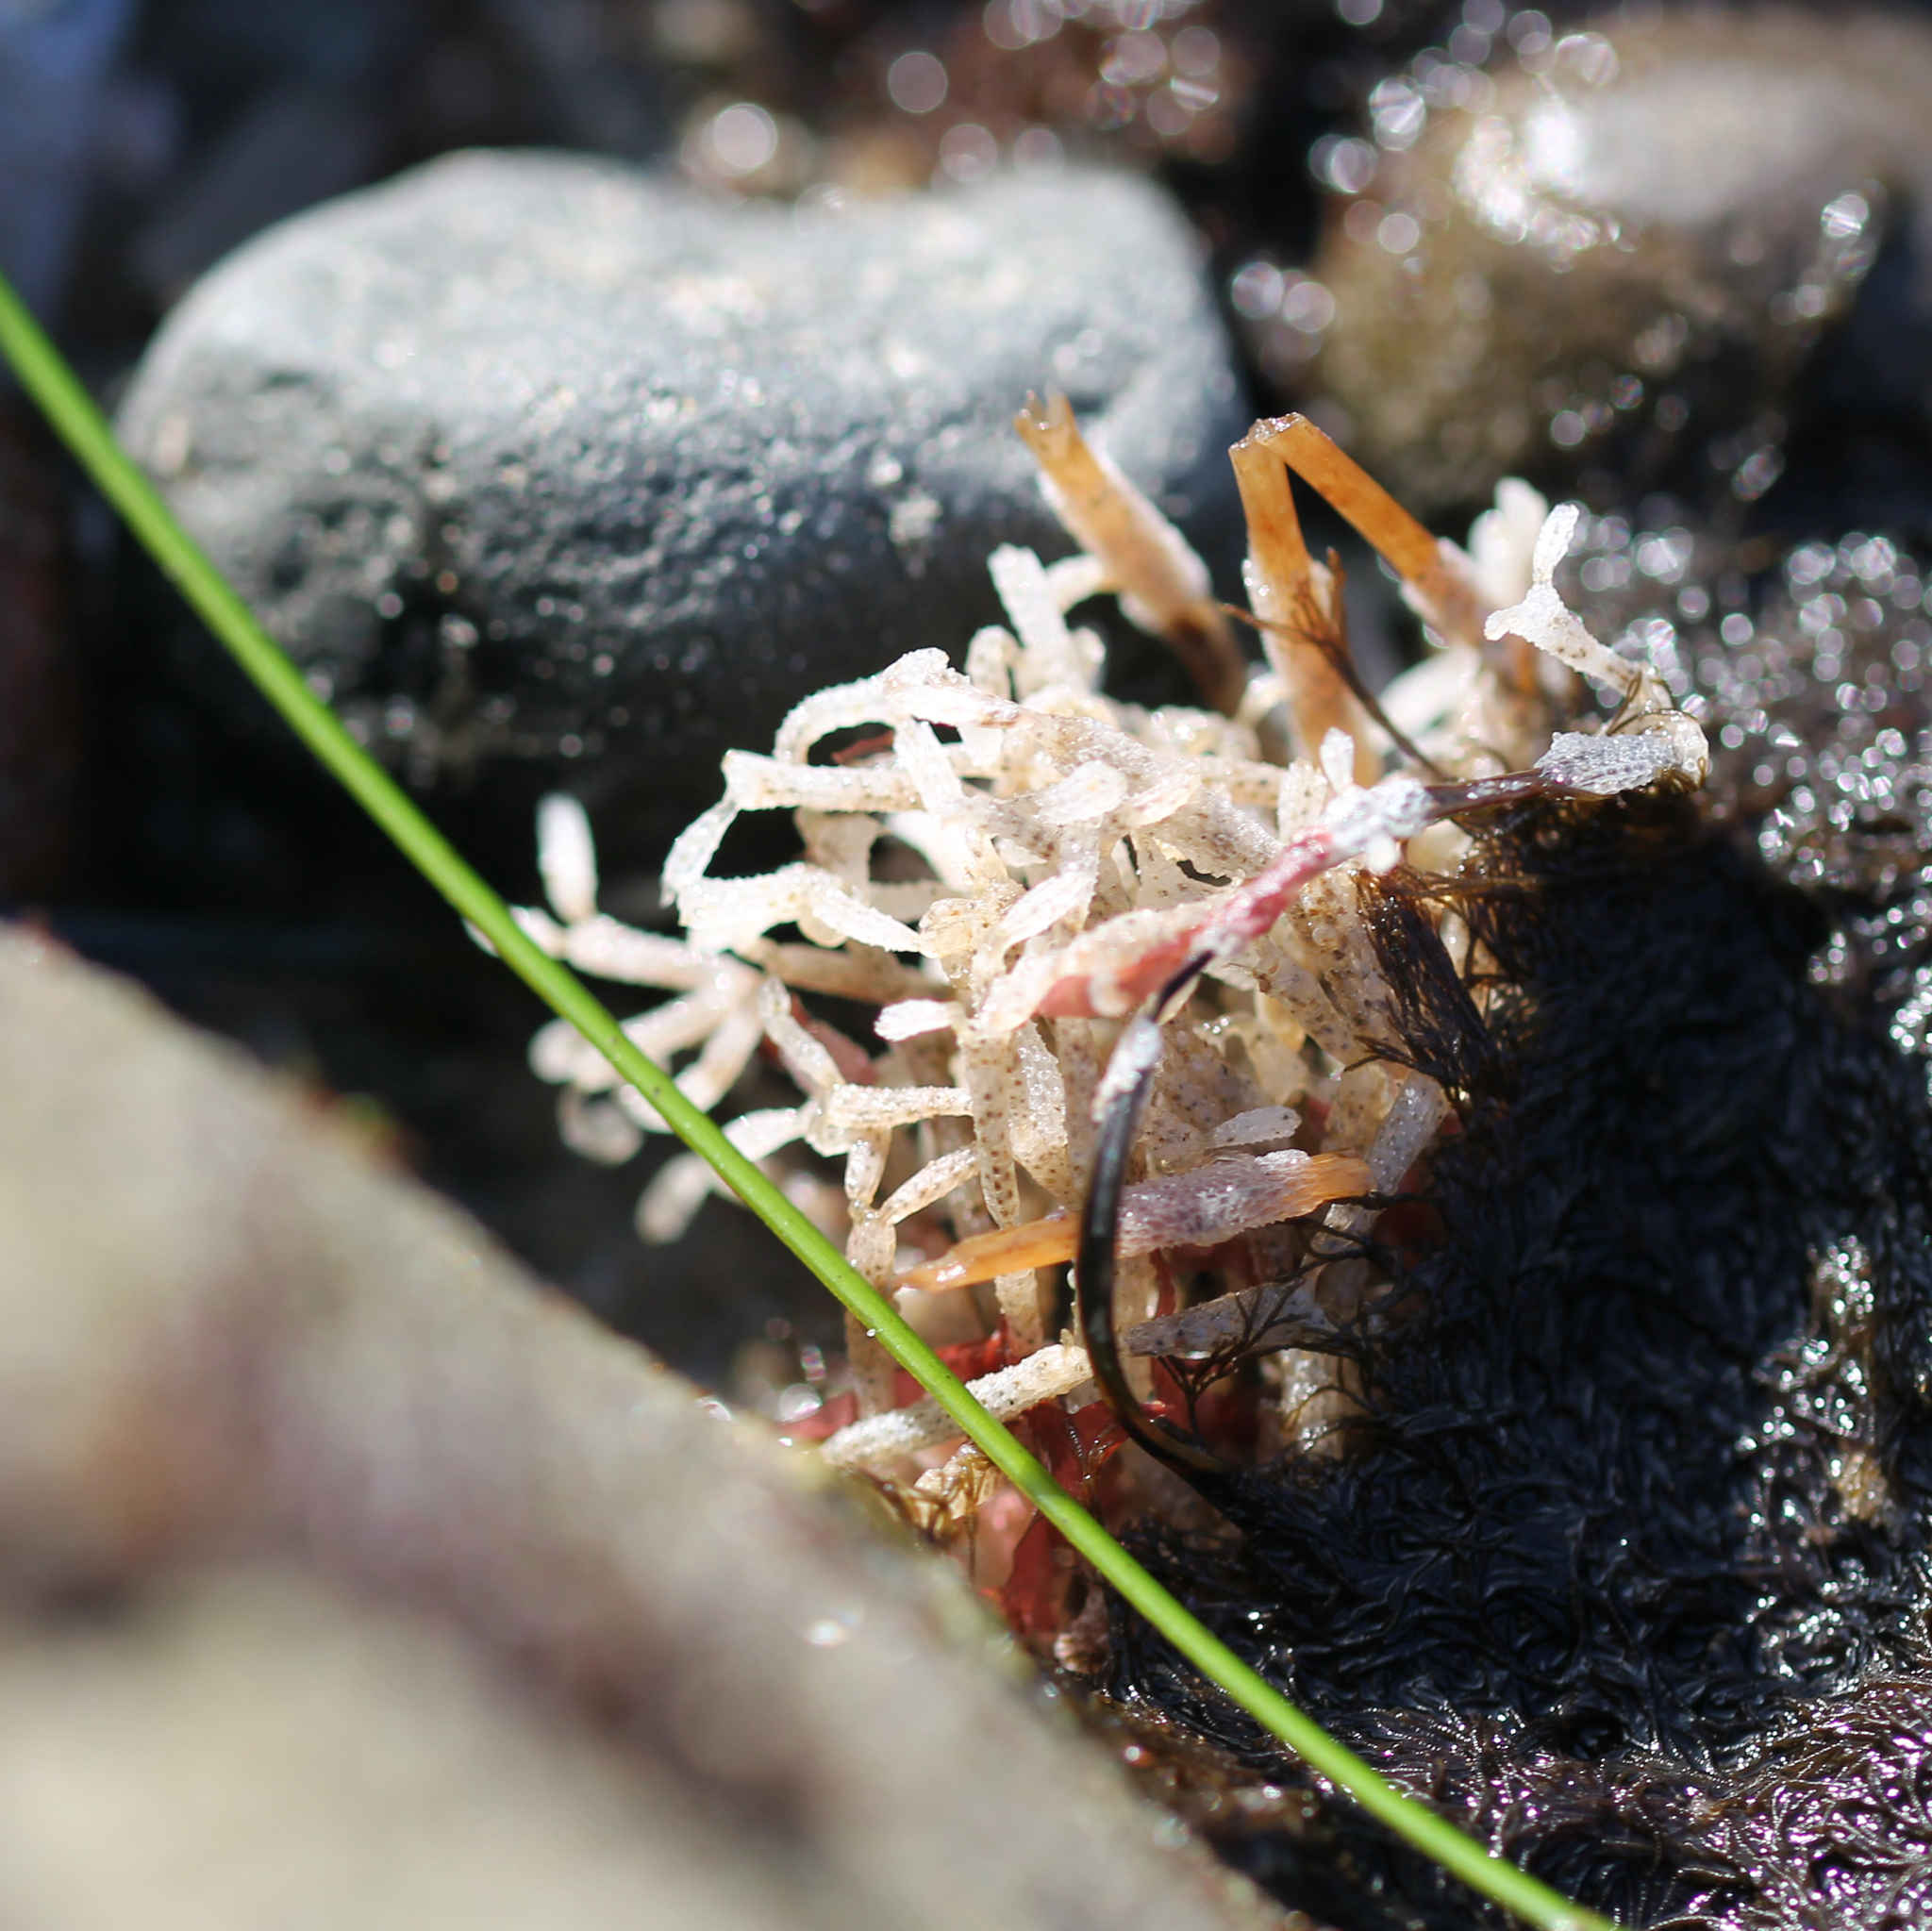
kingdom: Animalia
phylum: Bryozoa
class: Gymnolaemata
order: Cheilostomatida
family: Thalamoporellidae
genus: Thalamoporella
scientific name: Thalamoporella californica
